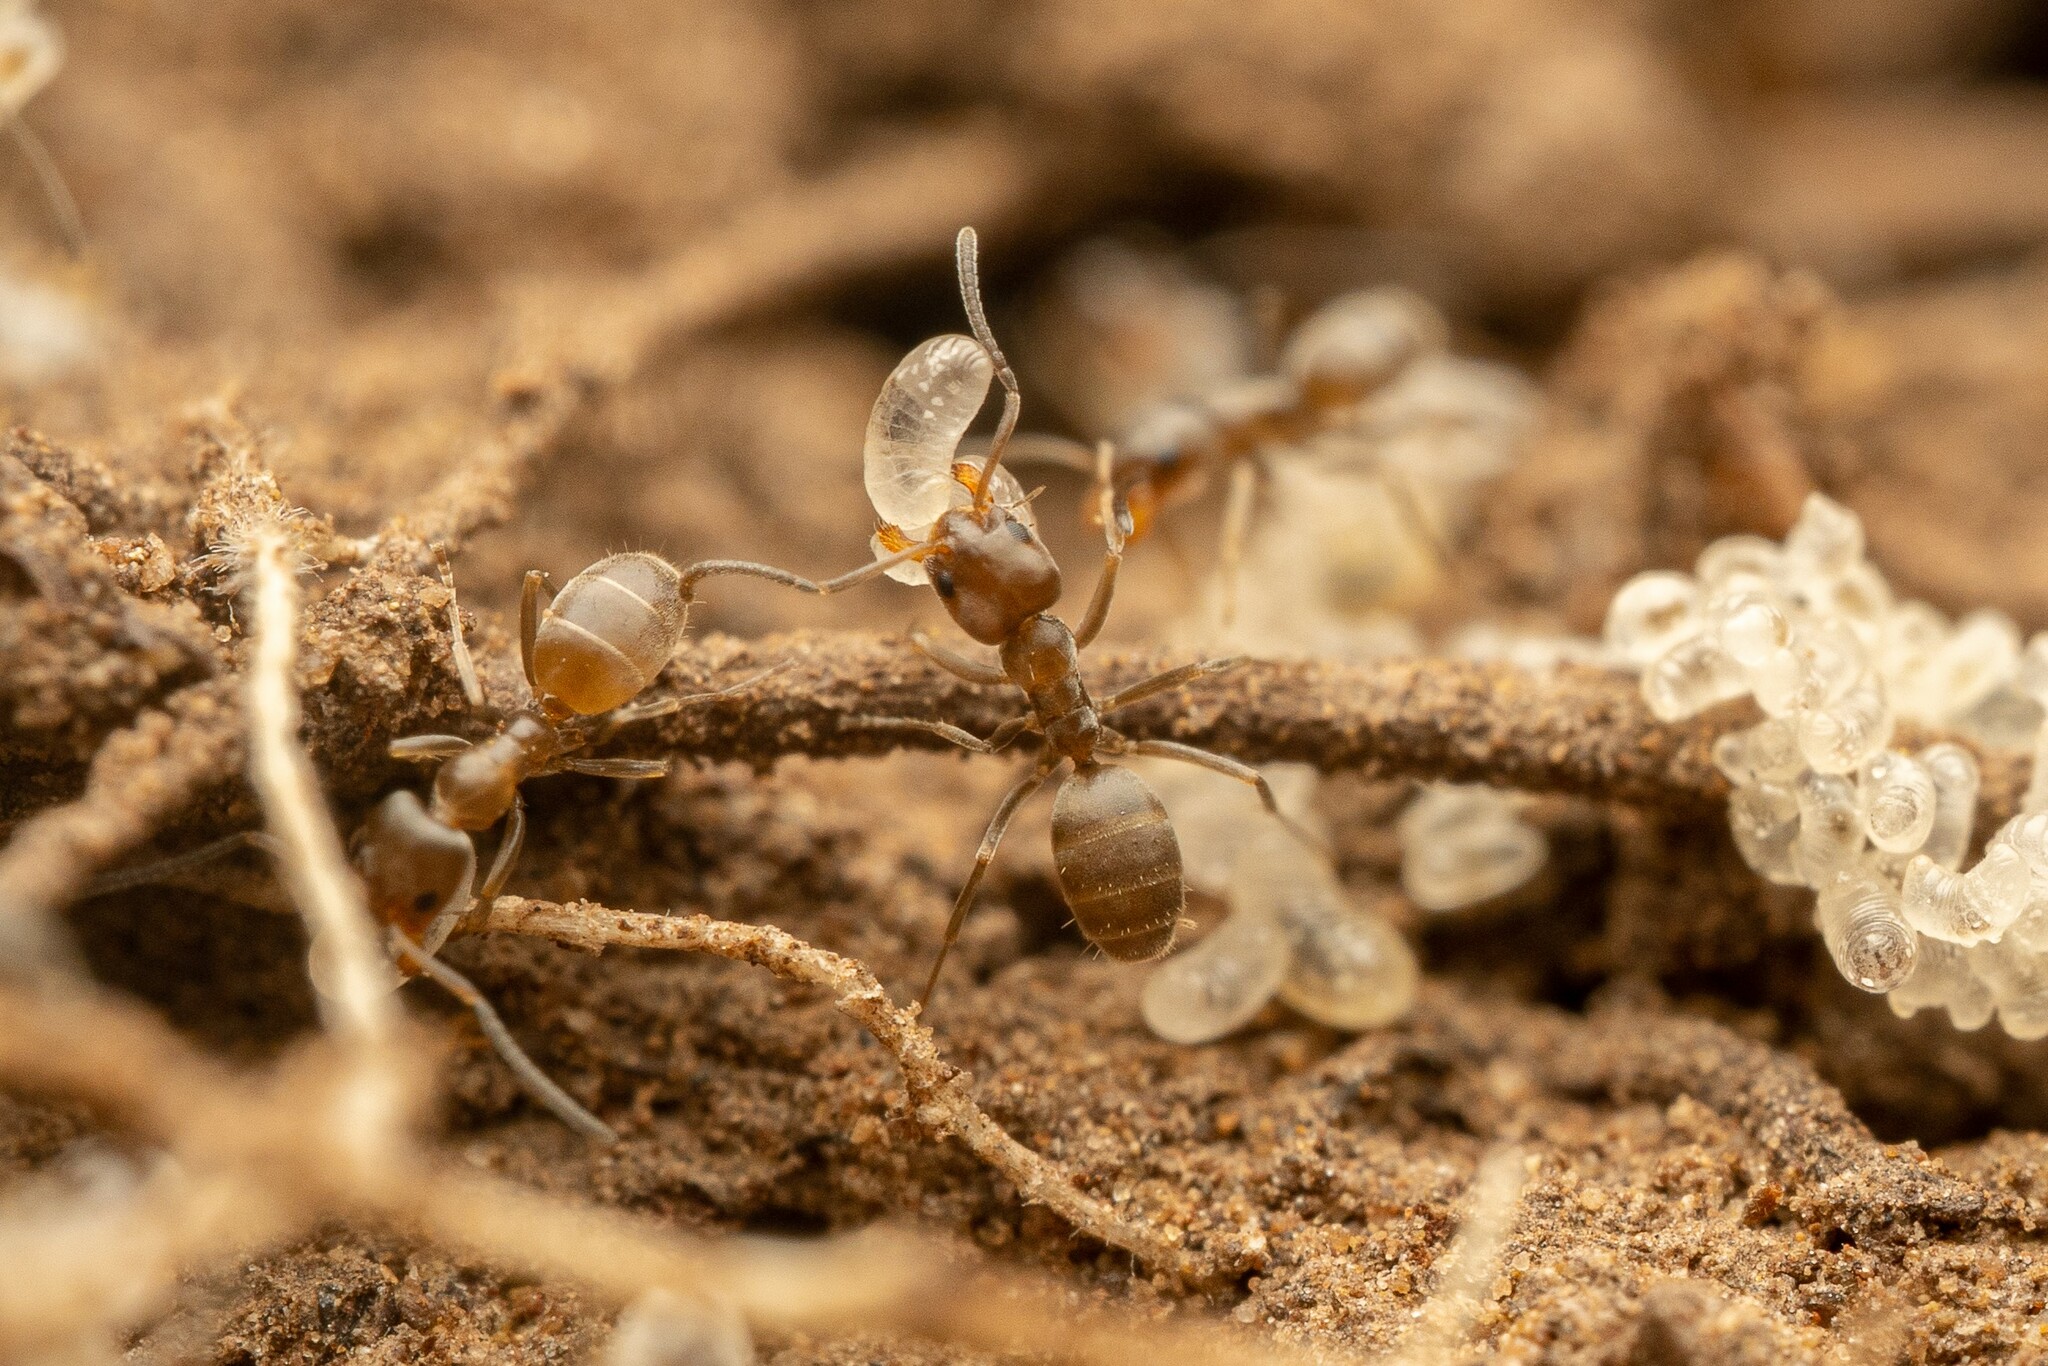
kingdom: Animalia
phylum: Arthropoda
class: Insecta
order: Hymenoptera
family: Formicidae
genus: Forelius
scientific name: Forelius pruinosus
